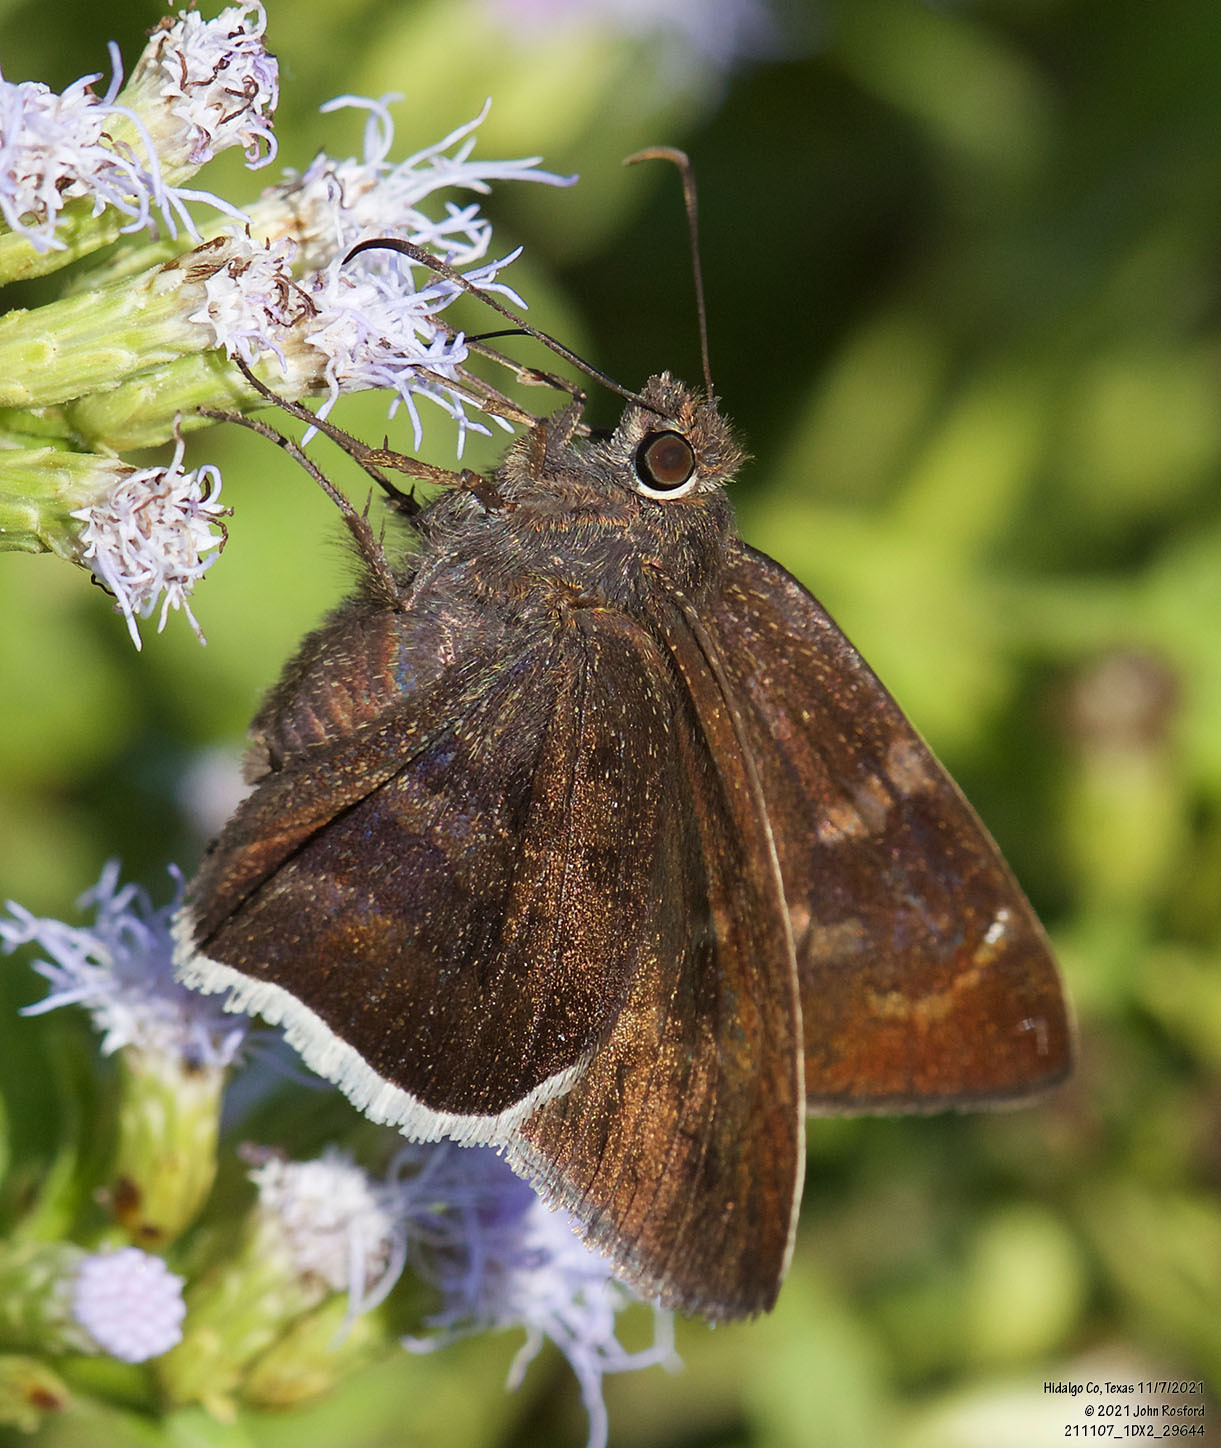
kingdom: Animalia
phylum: Arthropoda
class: Insecta
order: Lepidoptera
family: Hesperiidae
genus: Achalarus
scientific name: Achalarus Murgaria albociliatus
